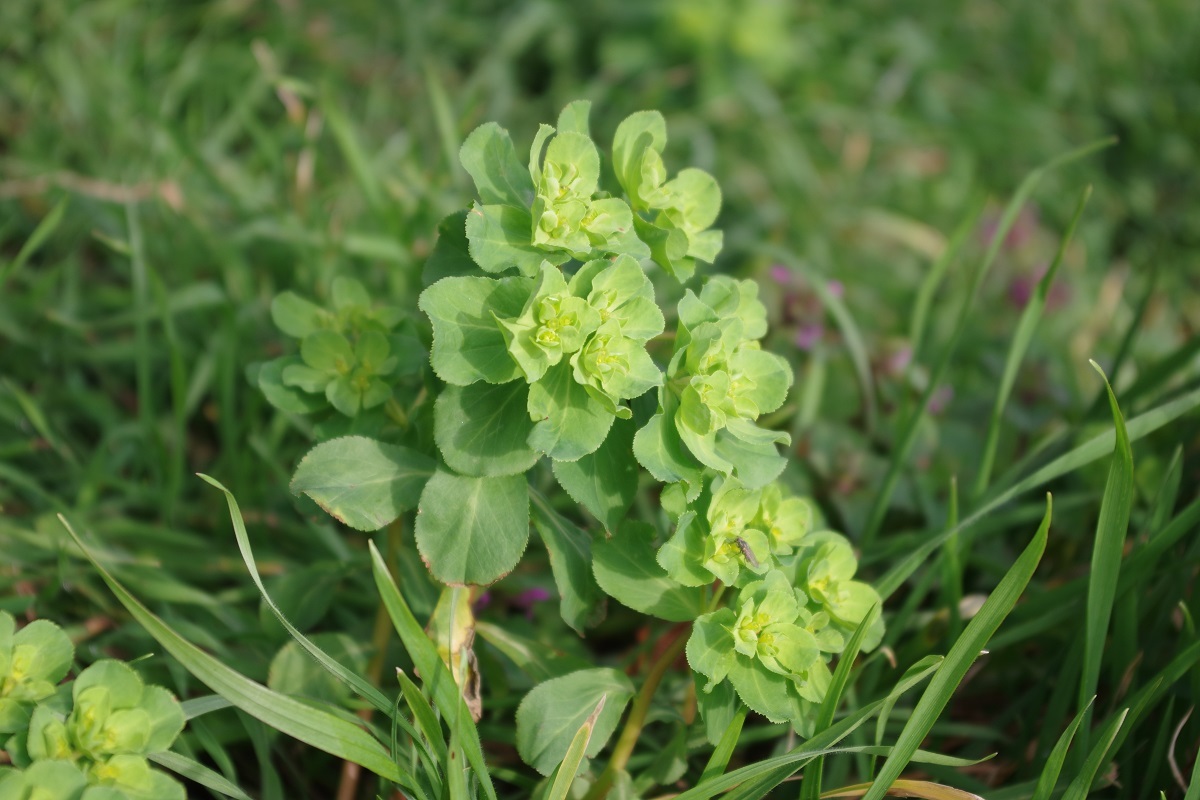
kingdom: Plantae
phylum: Tracheophyta
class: Magnoliopsida
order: Malpighiales
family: Euphorbiaceae
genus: Euphorbia
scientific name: Euphorbia helioscopia
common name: Sun spurge
